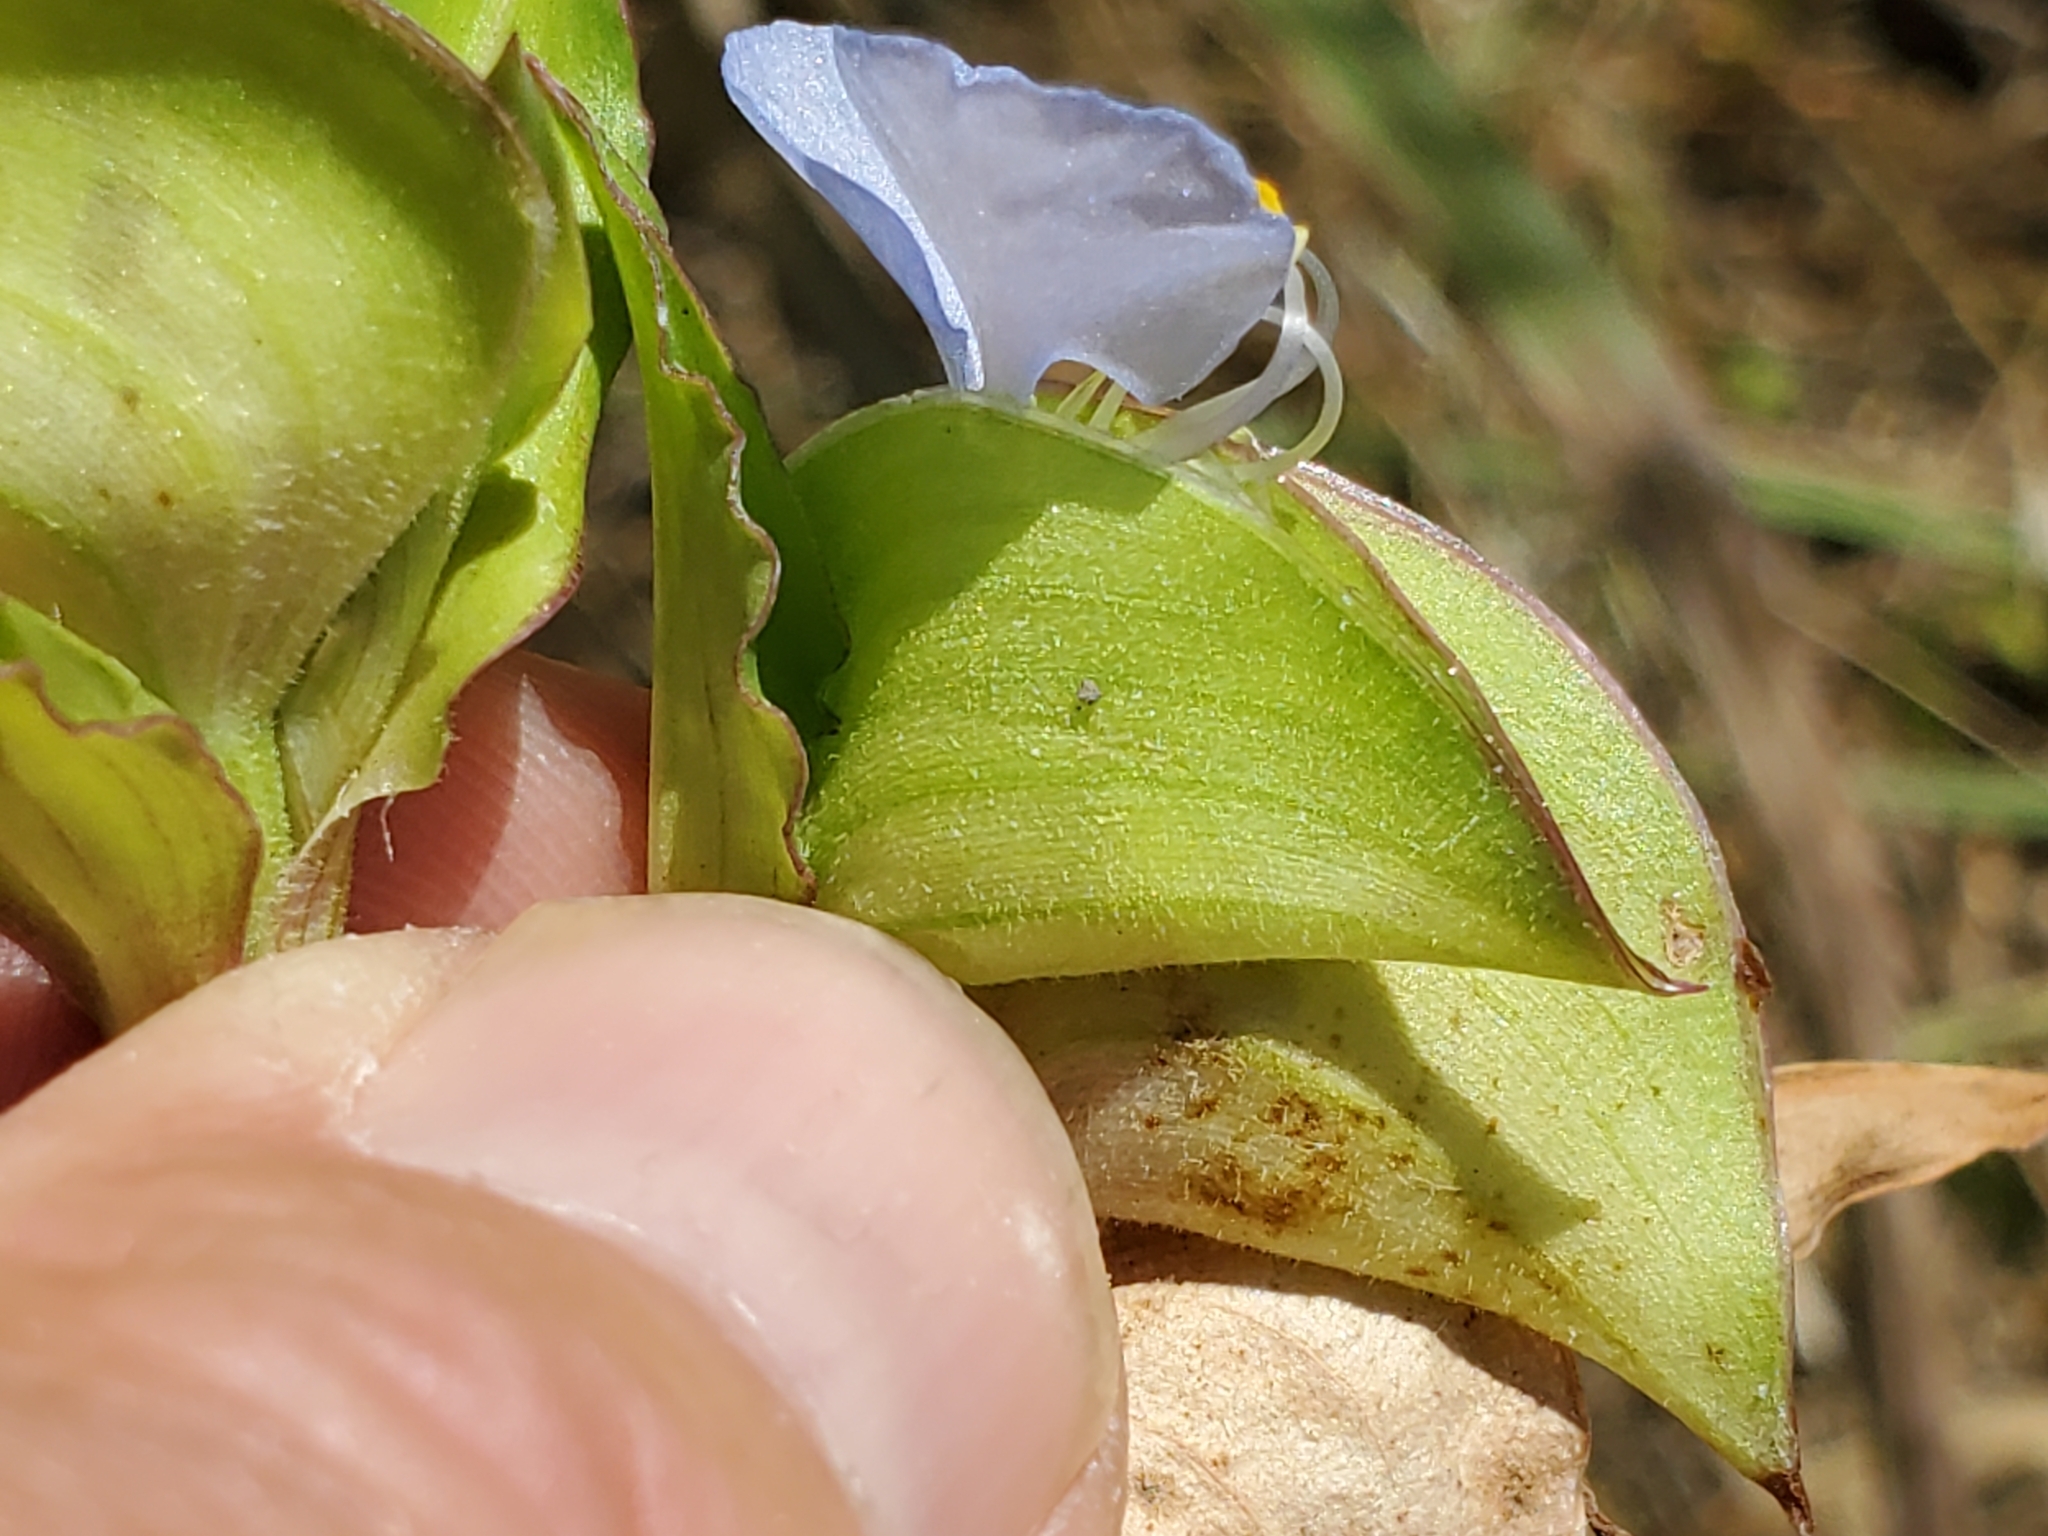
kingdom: Plantae
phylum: Tracheophyta
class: Liliopsida
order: Commelinales
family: Commelinaceae
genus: Commelina
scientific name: Commelina erecta
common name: Blousel blommetjie
